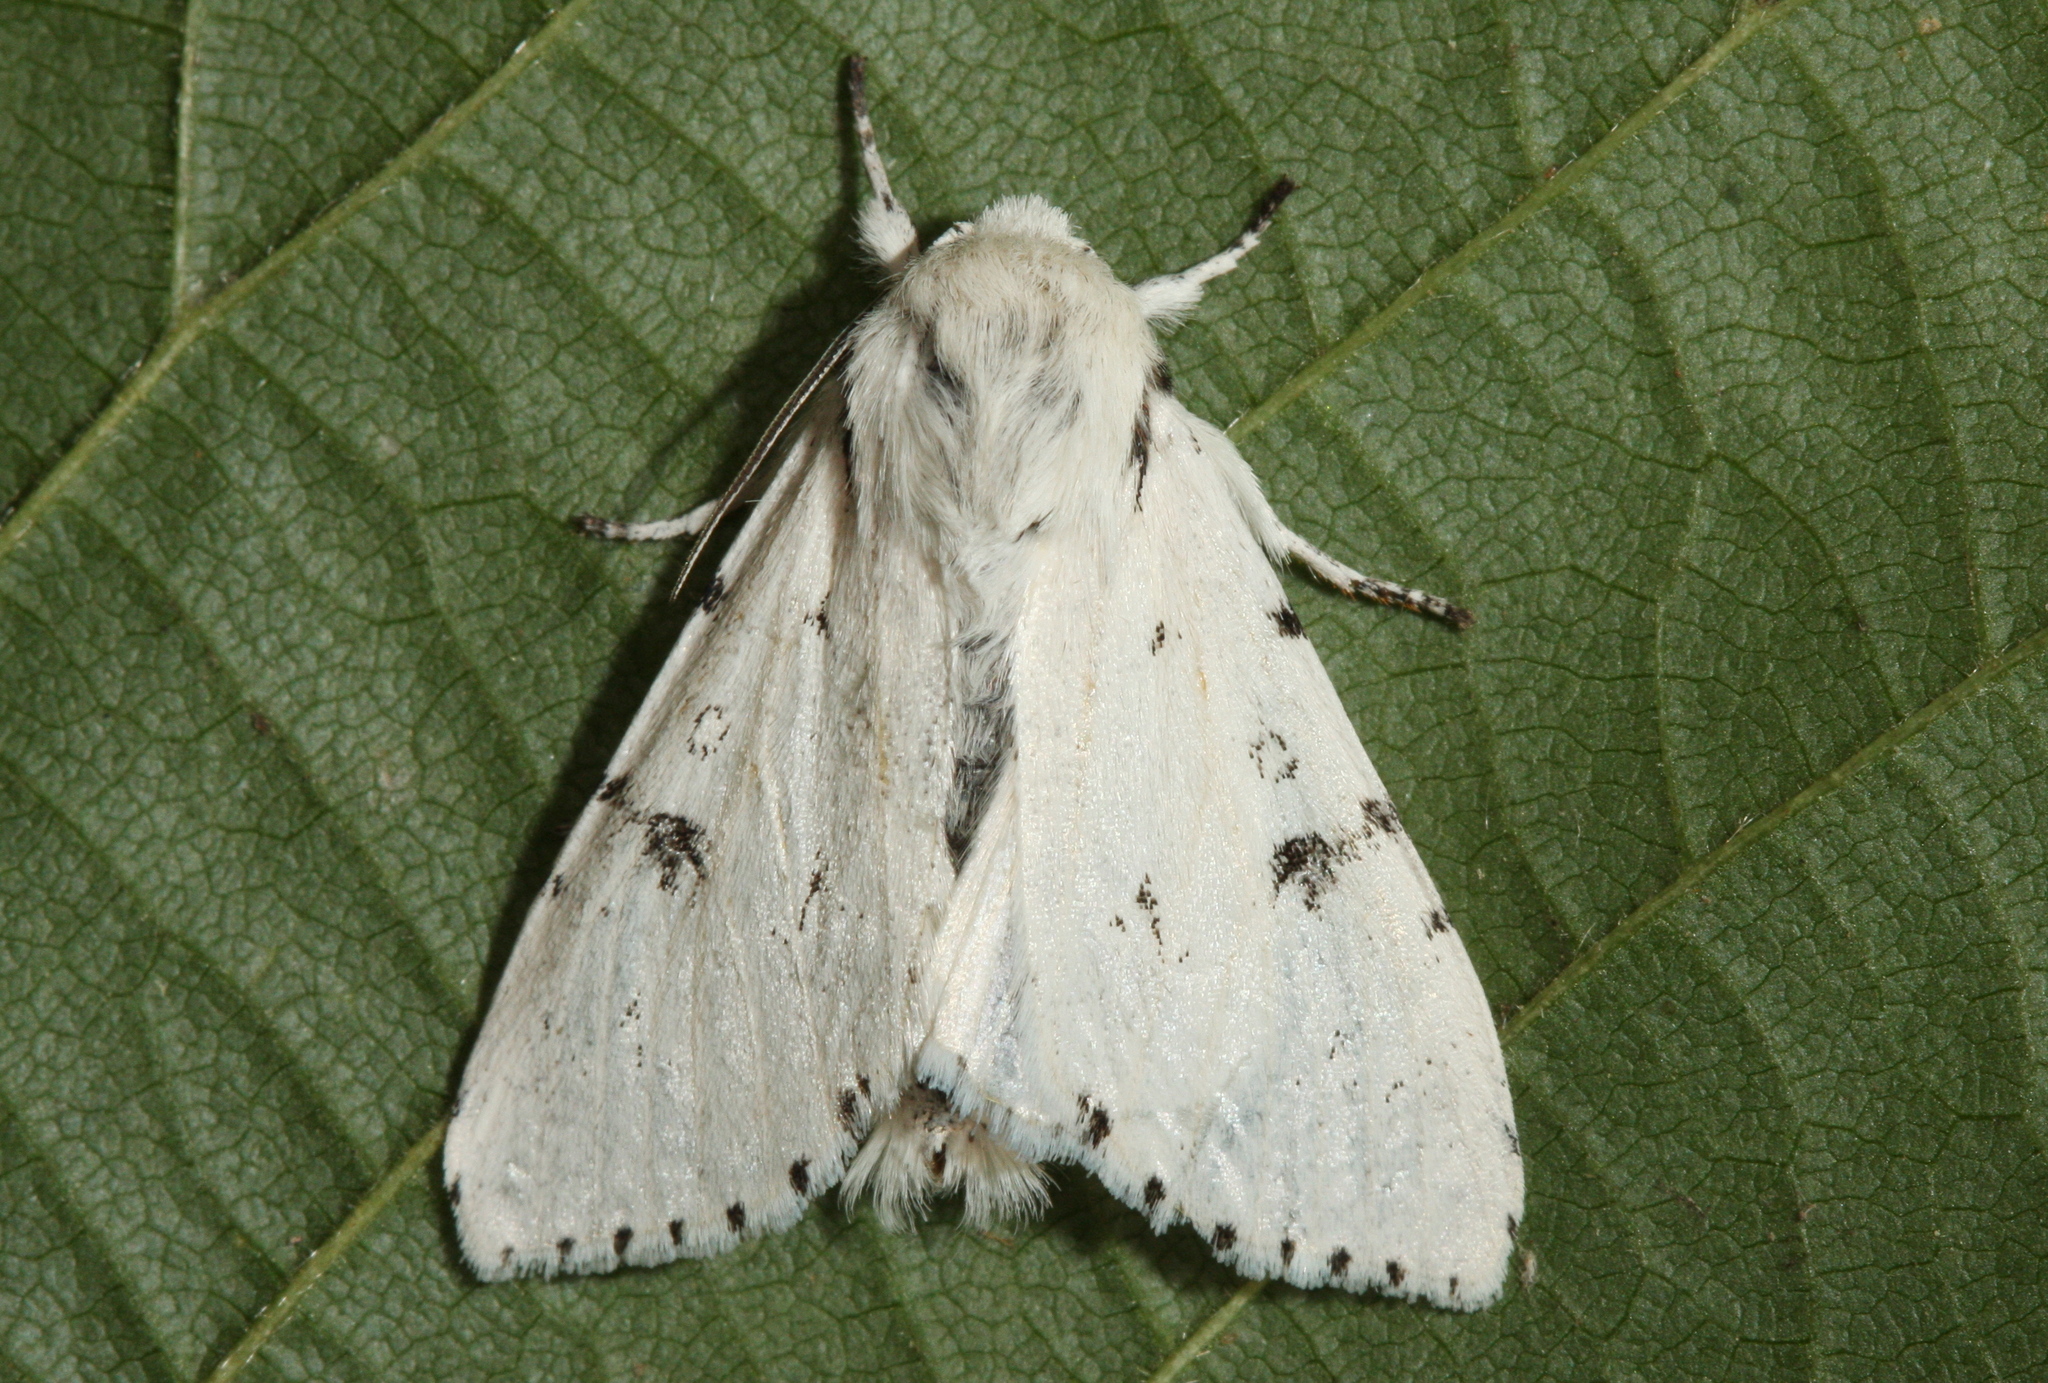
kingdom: Animalia
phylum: Arthropoda
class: Insecta
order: Lepidoptera
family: Noctuidae
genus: Acronicta
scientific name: Acronicta leporina
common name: Miller
